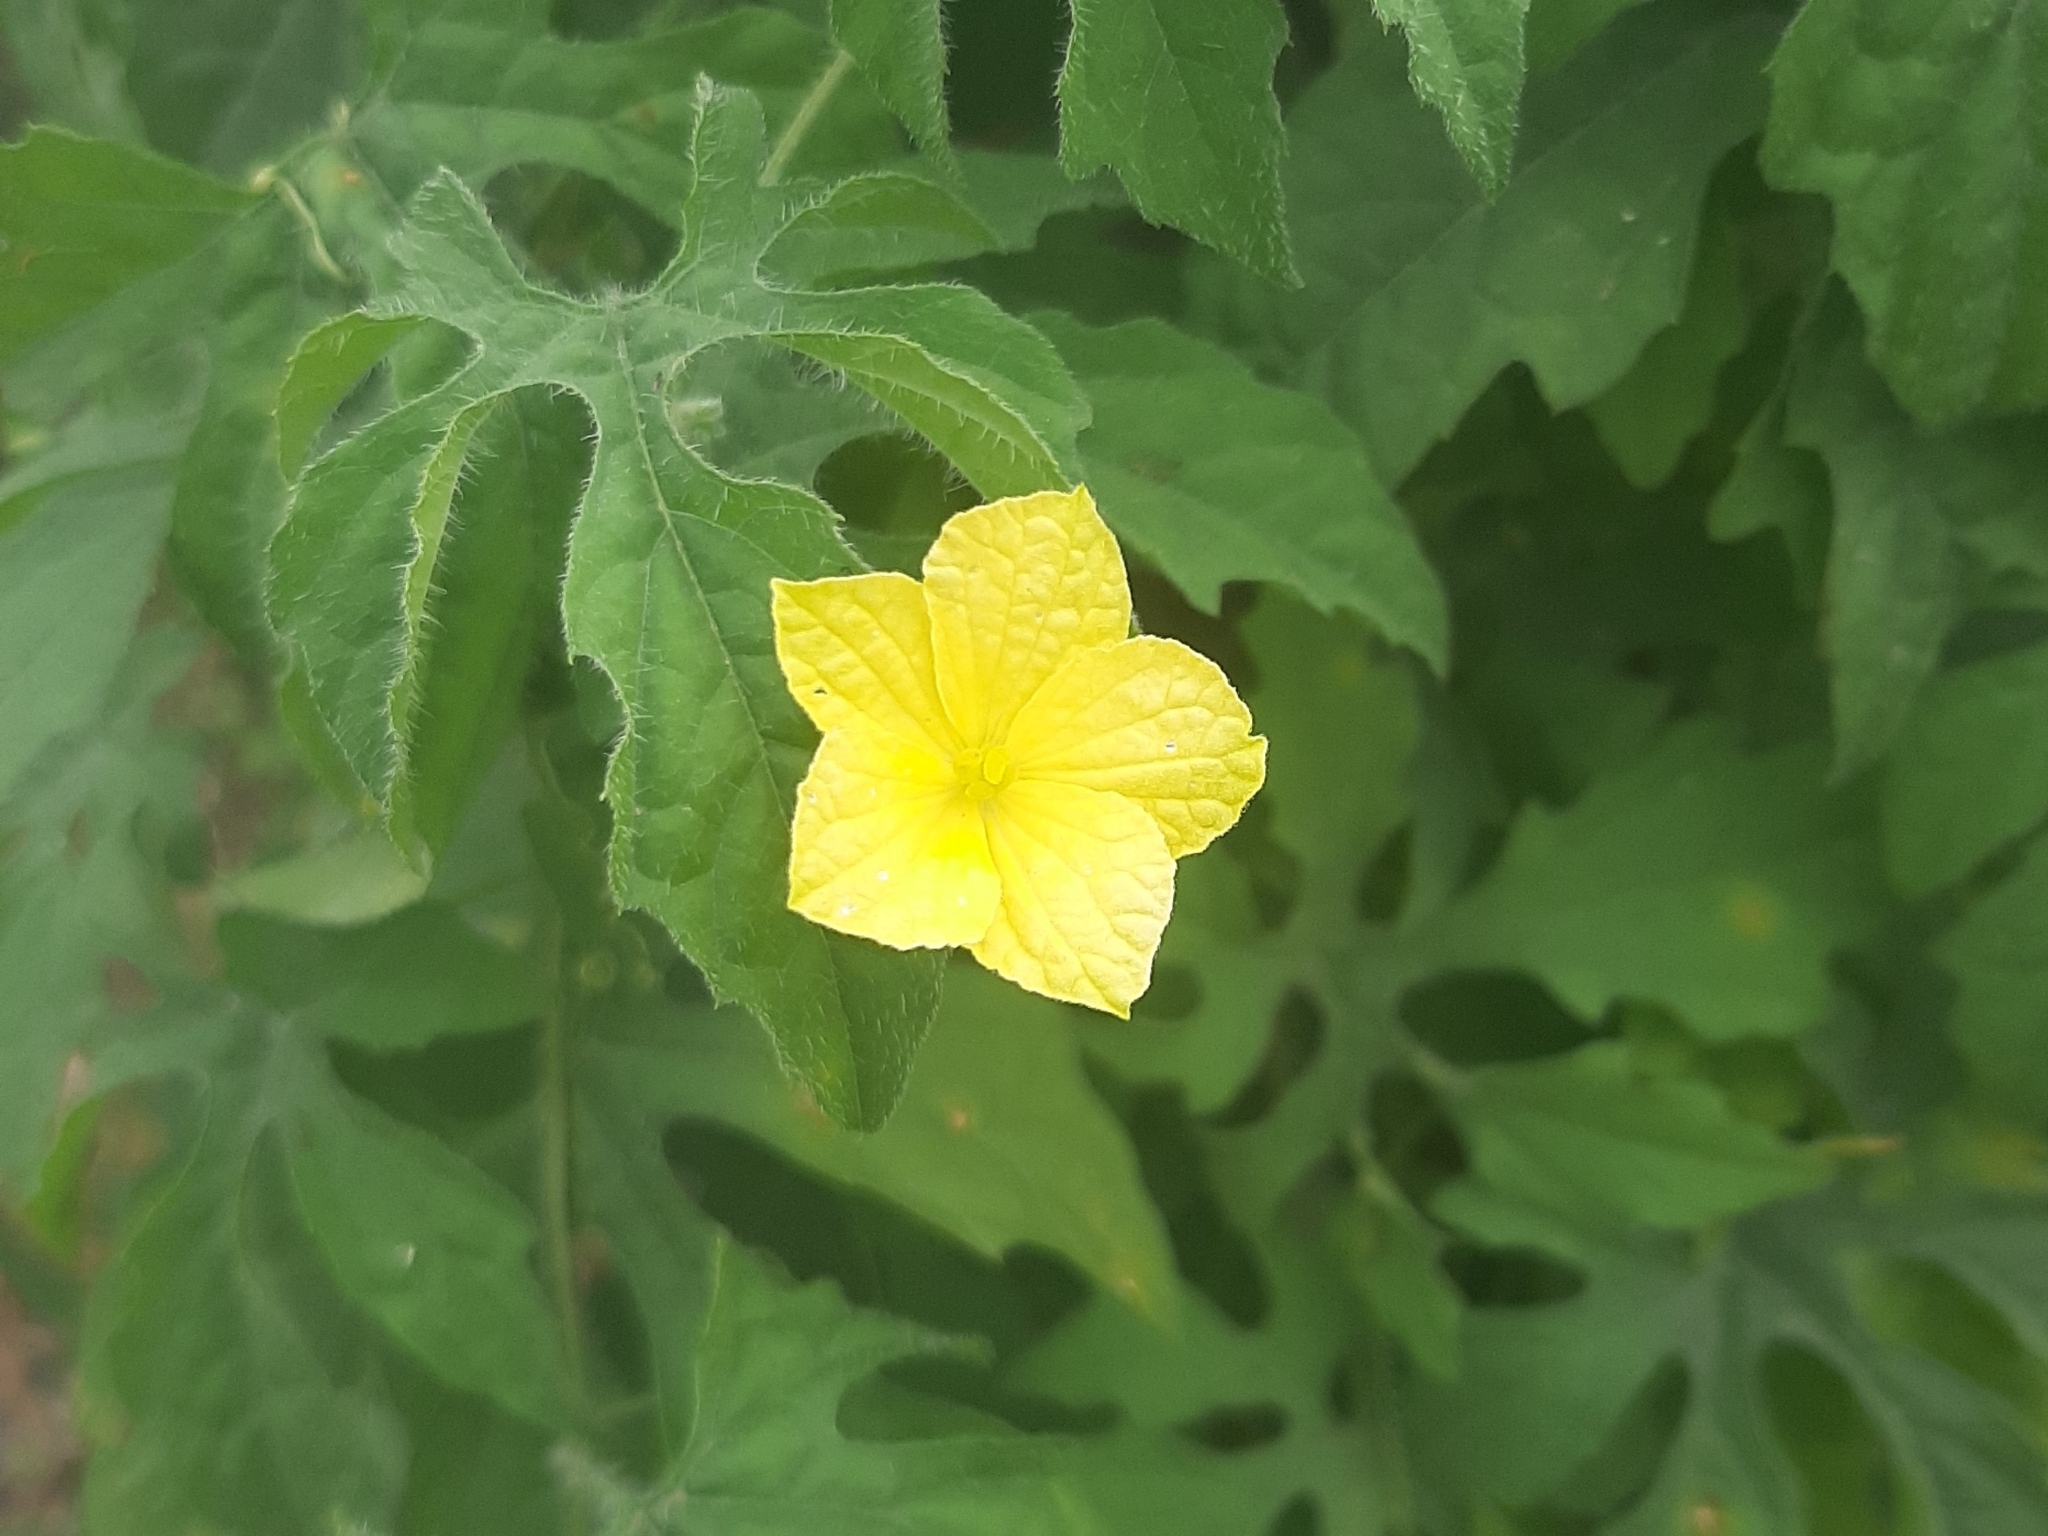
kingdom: Plantae
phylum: Tracheophyta
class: Magnoliopsida
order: Cucurbitales
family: Cucurbitaceae
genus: Momordica
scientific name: Momordica charantia
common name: Balsampear
